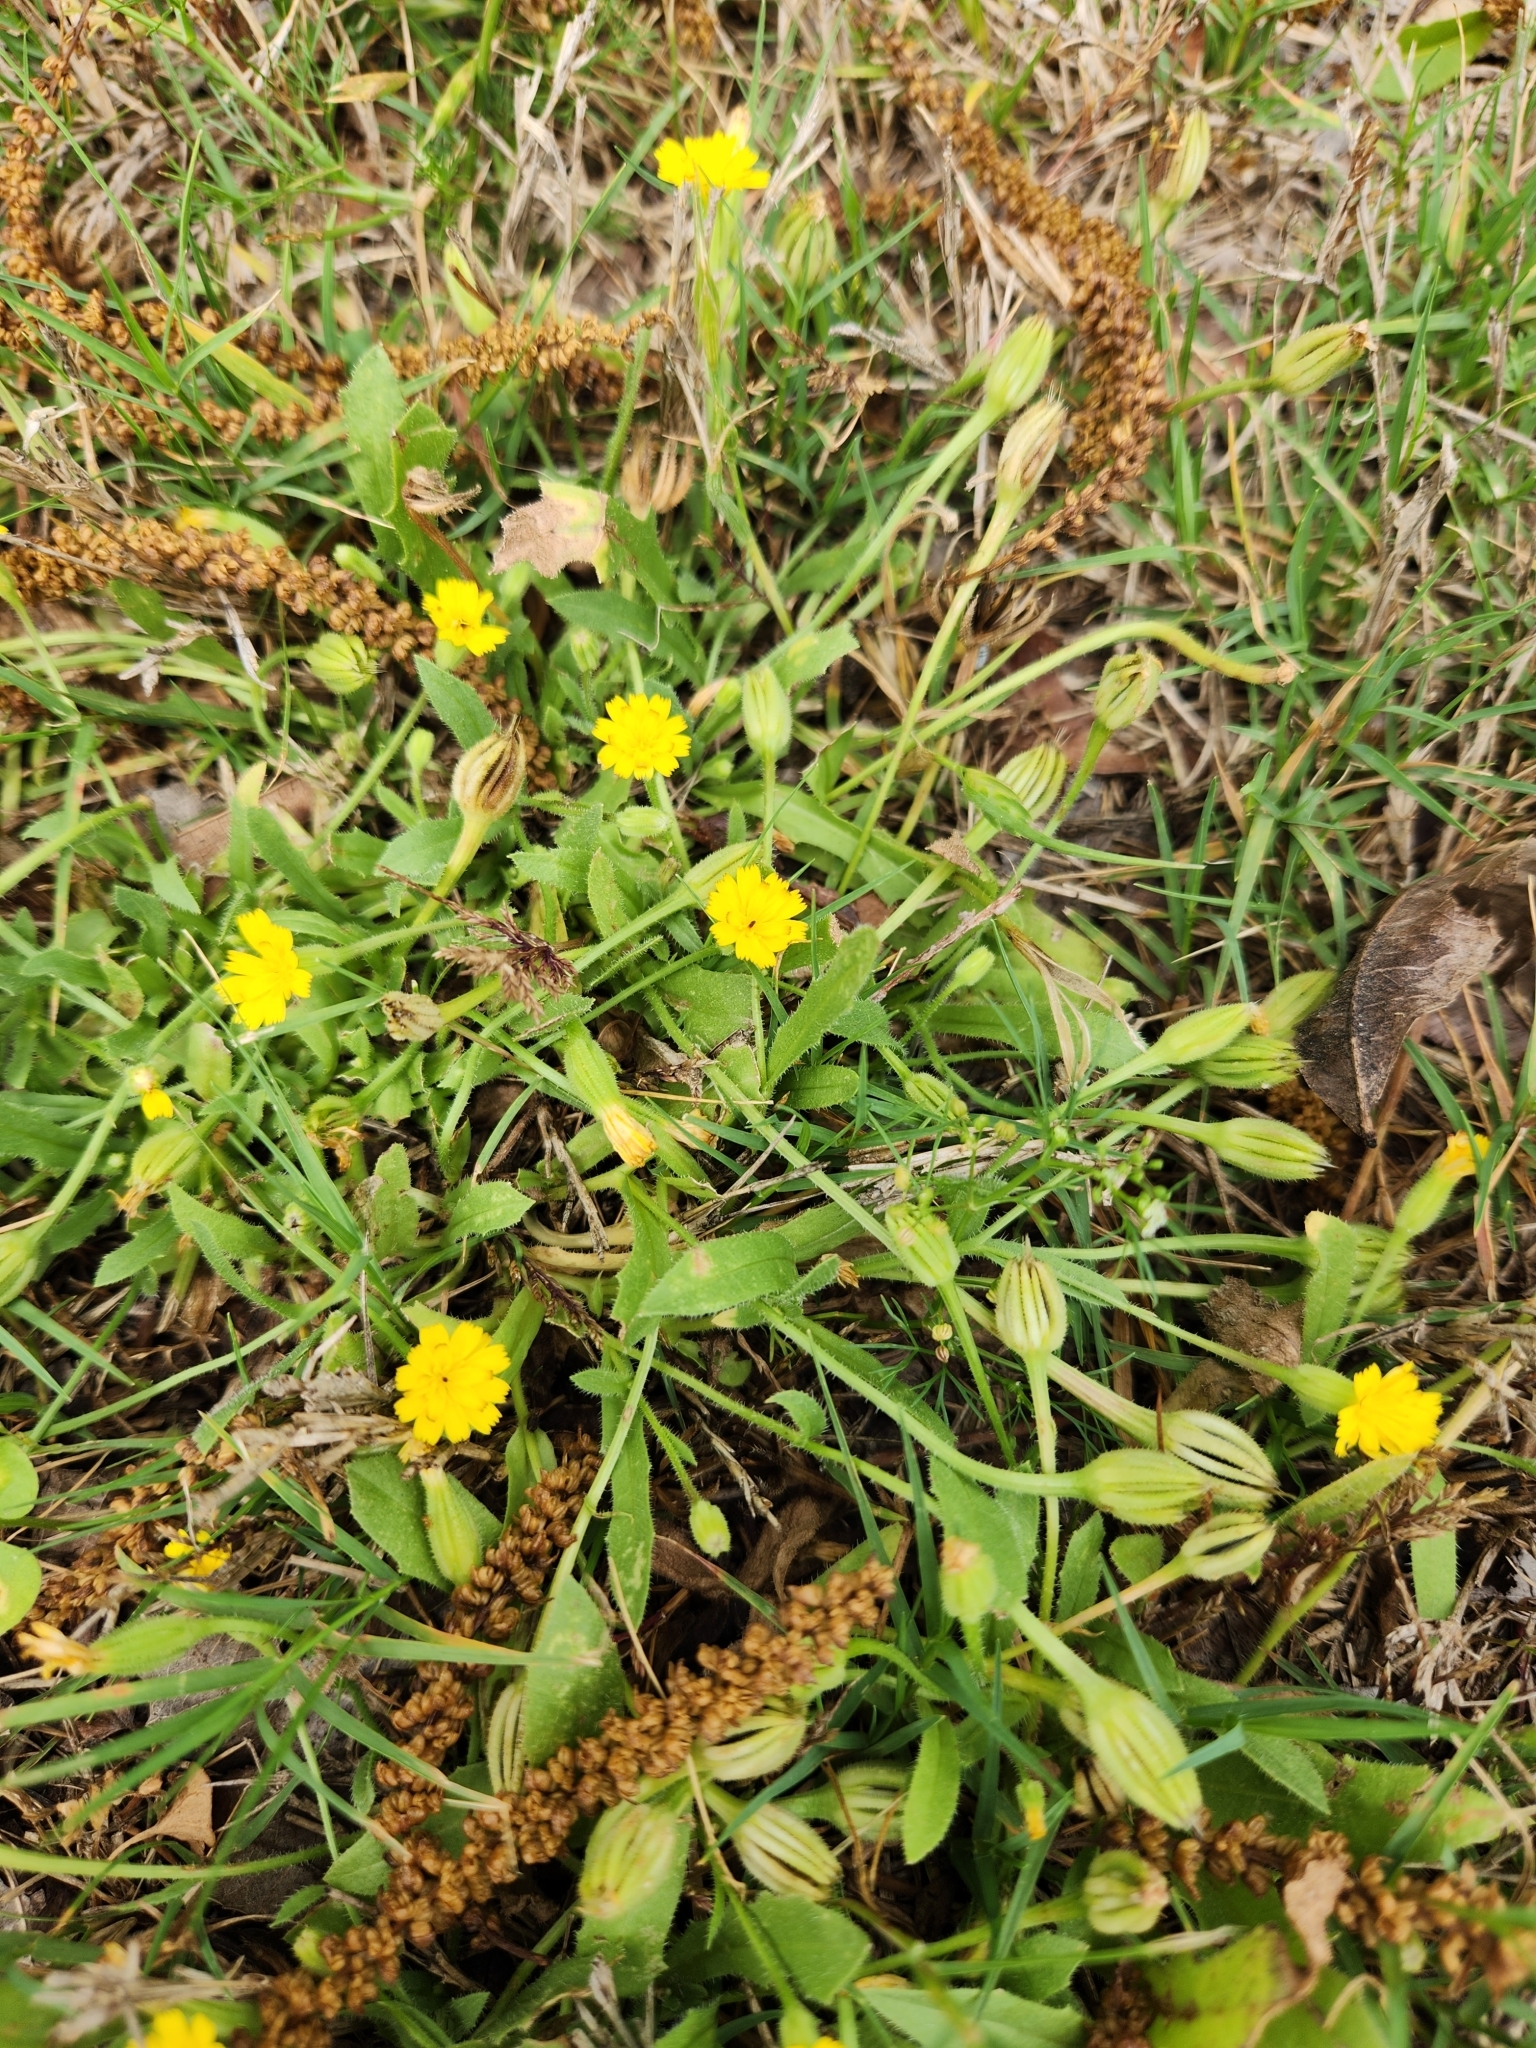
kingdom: Plantae
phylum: Tracheophyta
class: Magnoliopsida
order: Asterales
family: Asteraceae
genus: Hedypnois
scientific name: Hedypnois rhagadioloides
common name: Cretan weed
